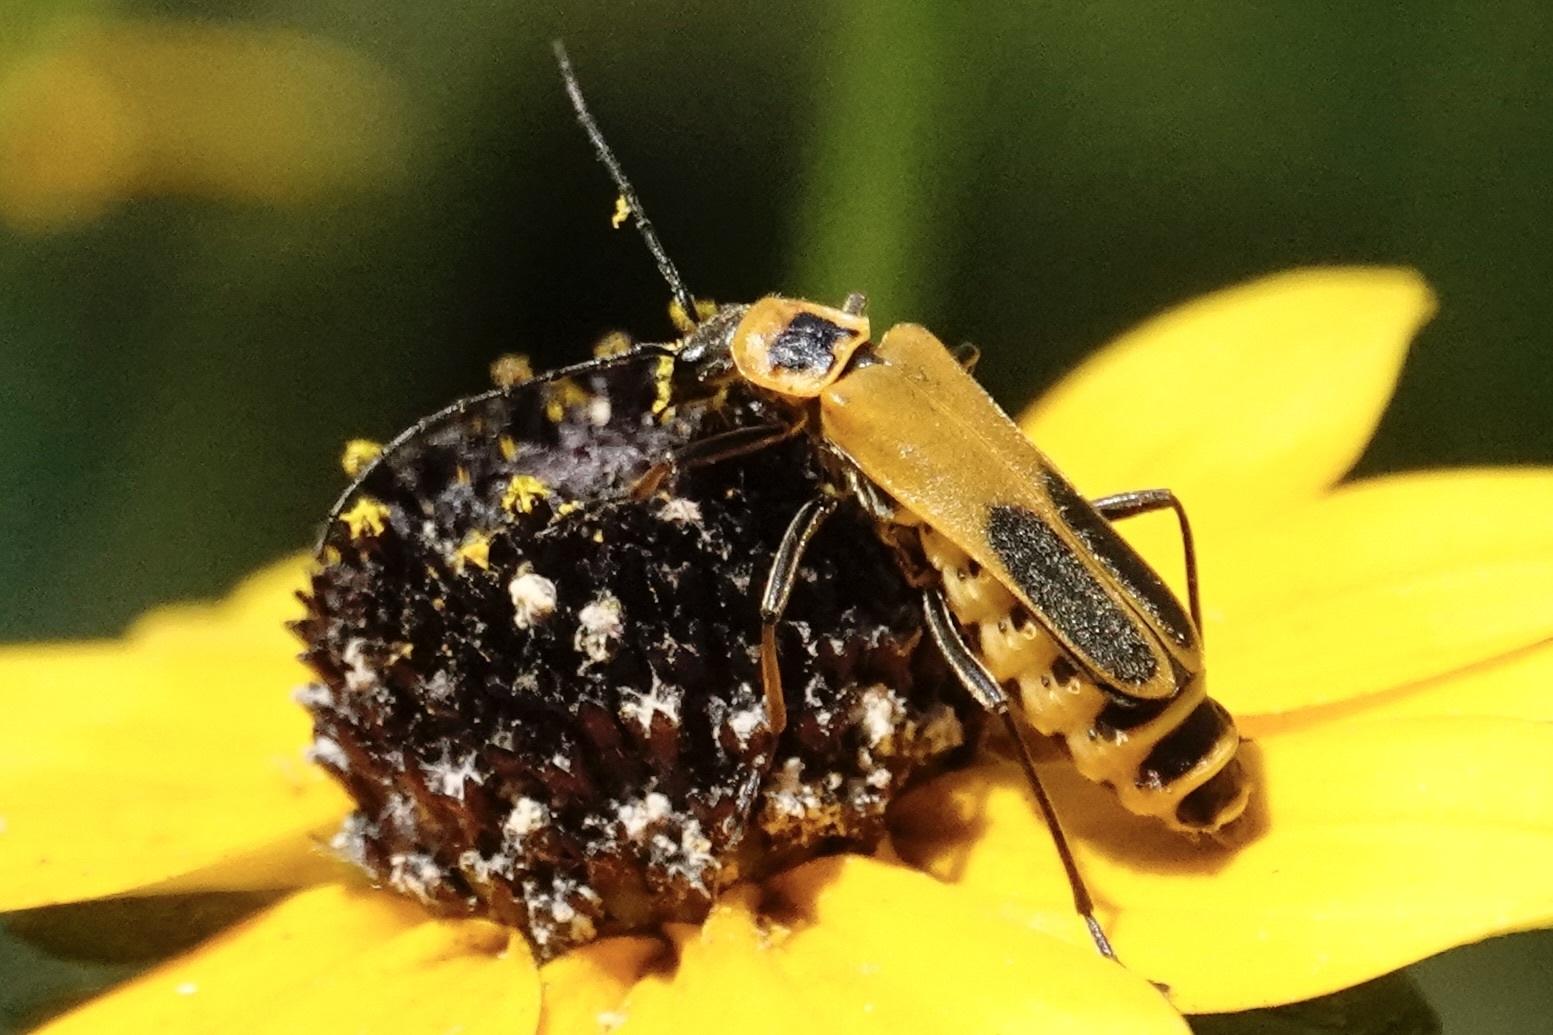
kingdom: Animalia
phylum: Arthropoda
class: Insecta
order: Coleoptera
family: Cantharidae
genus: Chauliognathus
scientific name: Chauliognathus pensylvanicus
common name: Goldenrod soldier beetle
